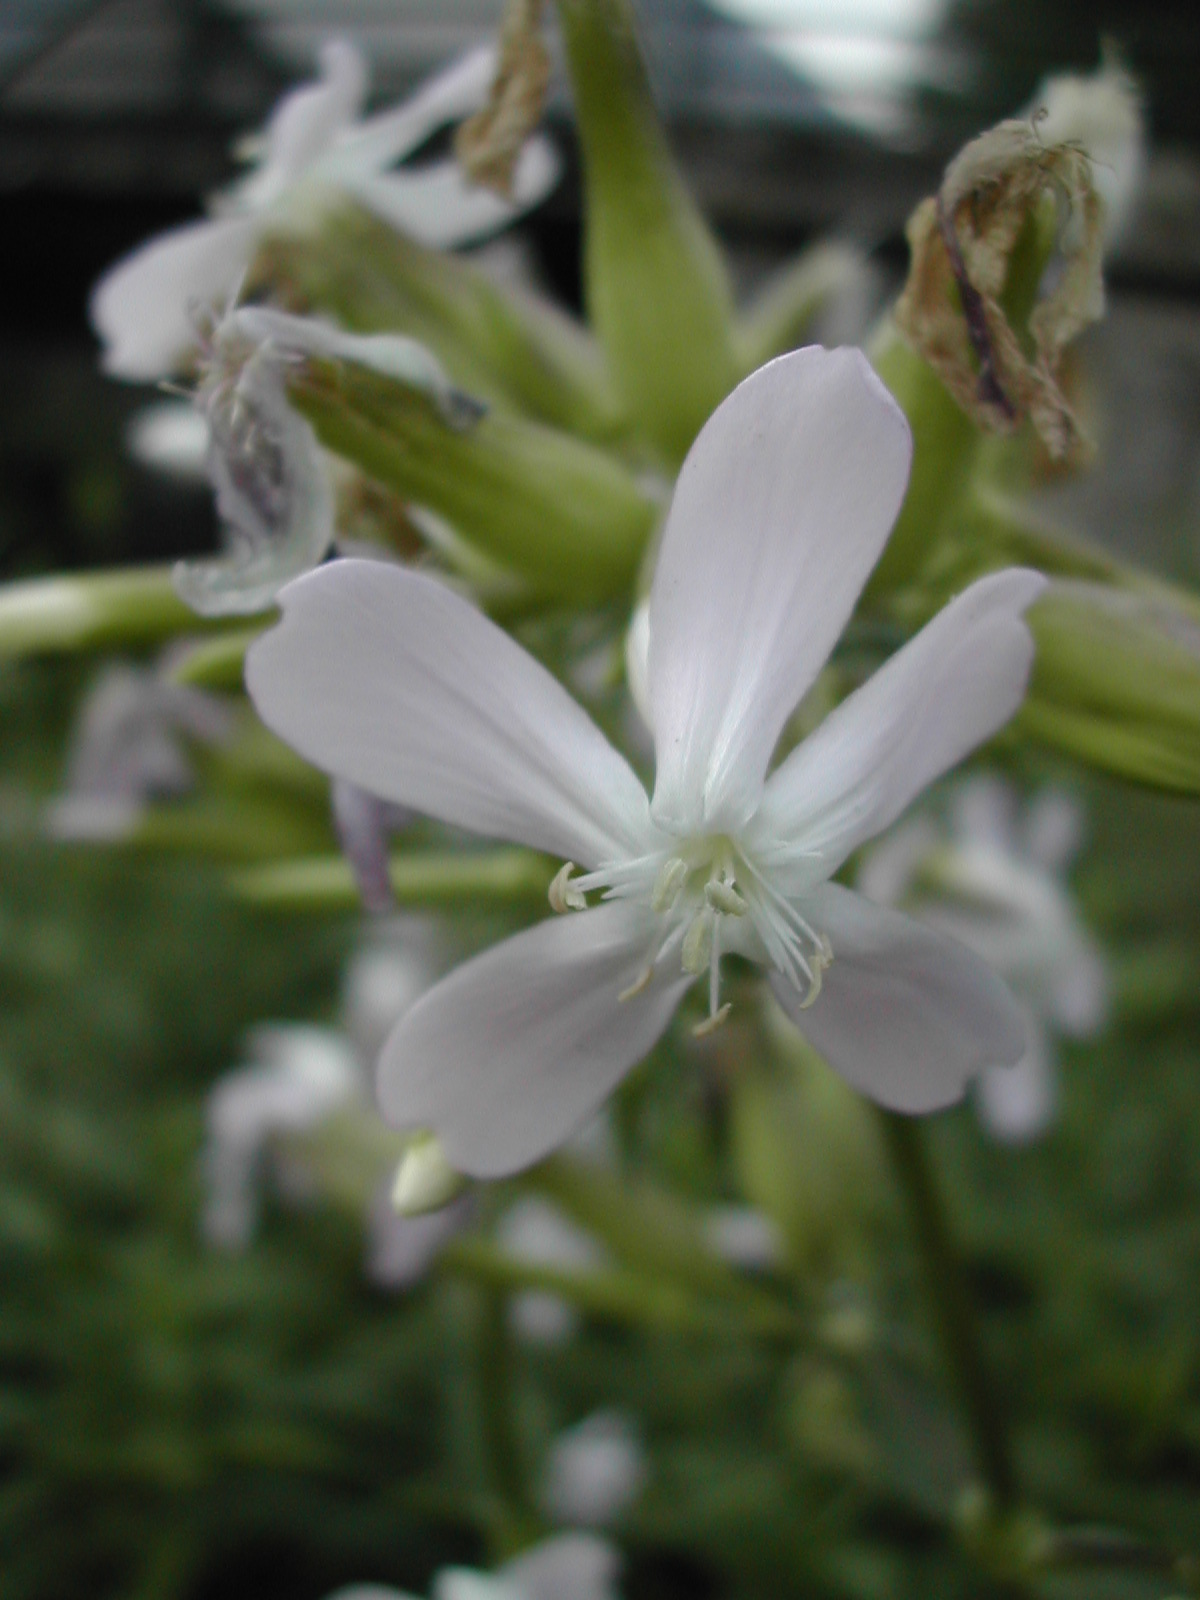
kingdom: Plantae
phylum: Tracheophyta
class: Magnoliopsida
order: Caryophyllales
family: Caryophyllaceae
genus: Saponaria
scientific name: Saponaria officinalis
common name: Soapwort
